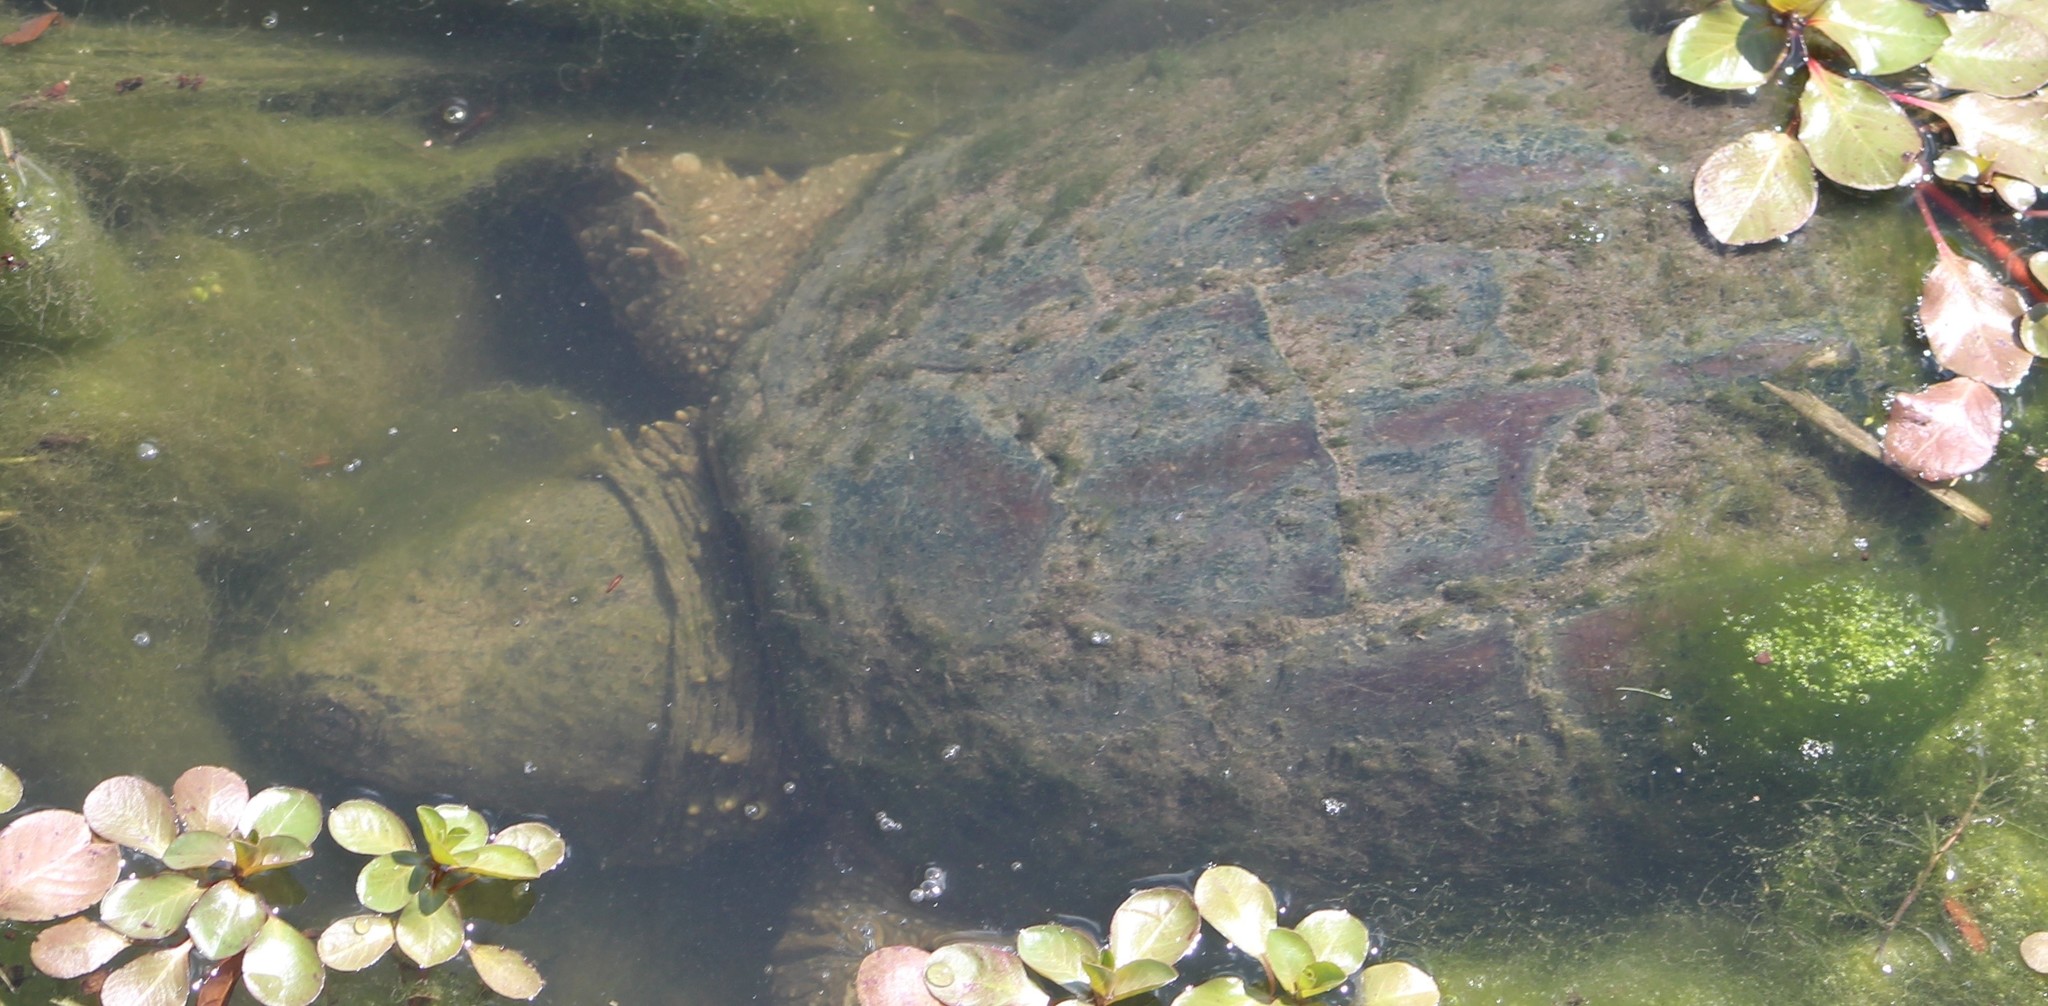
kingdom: Animalia
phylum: Chordata
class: Testudines
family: Chelydridae
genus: Chelydra
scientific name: Chelydra serpentina
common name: Common snapping turtle
